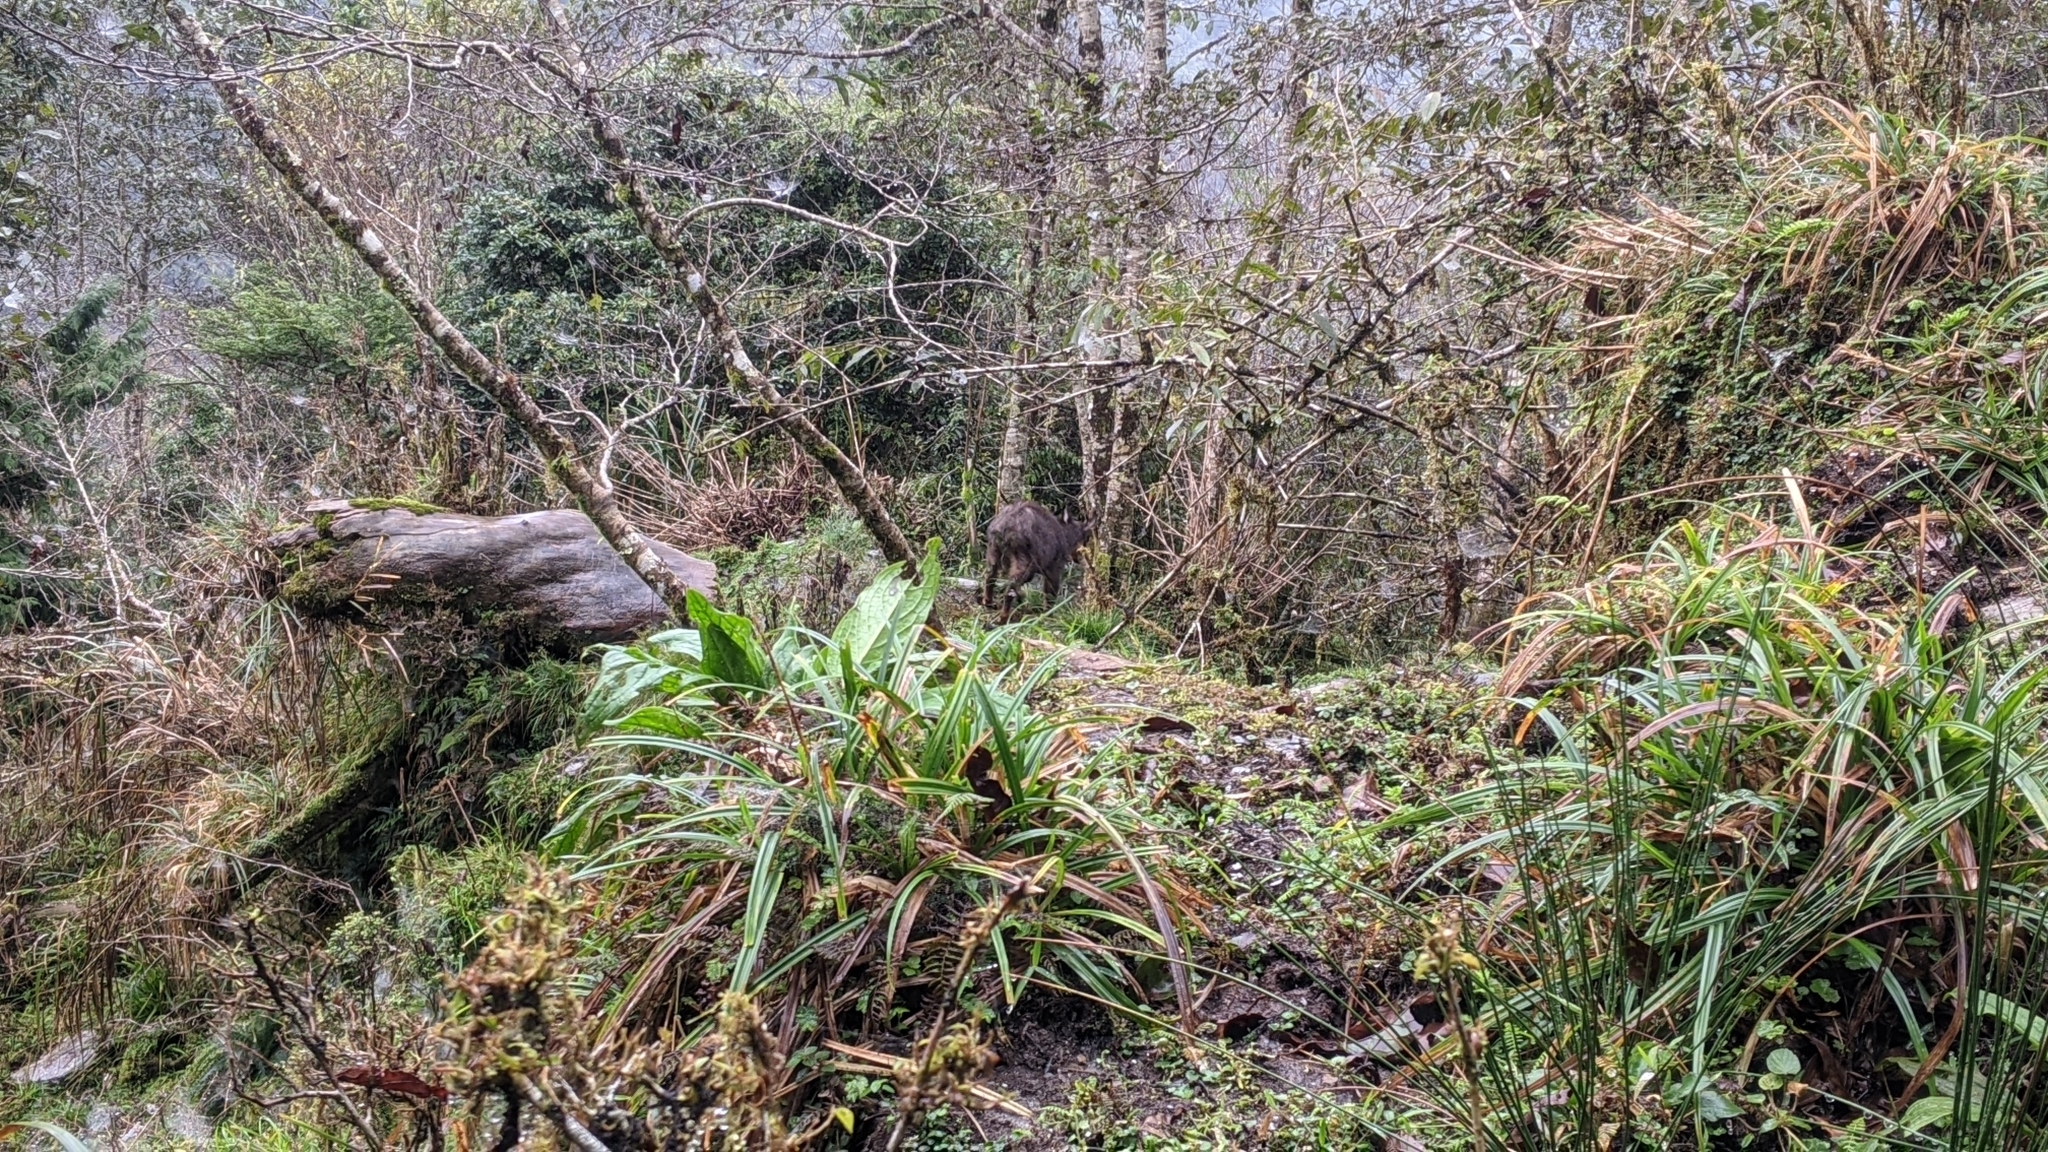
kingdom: Animalia
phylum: Chordata
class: Mammalia
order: Artiodactyla
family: Bovidae
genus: Capricornis
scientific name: Capricornis swinhoei
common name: Formosan serow
